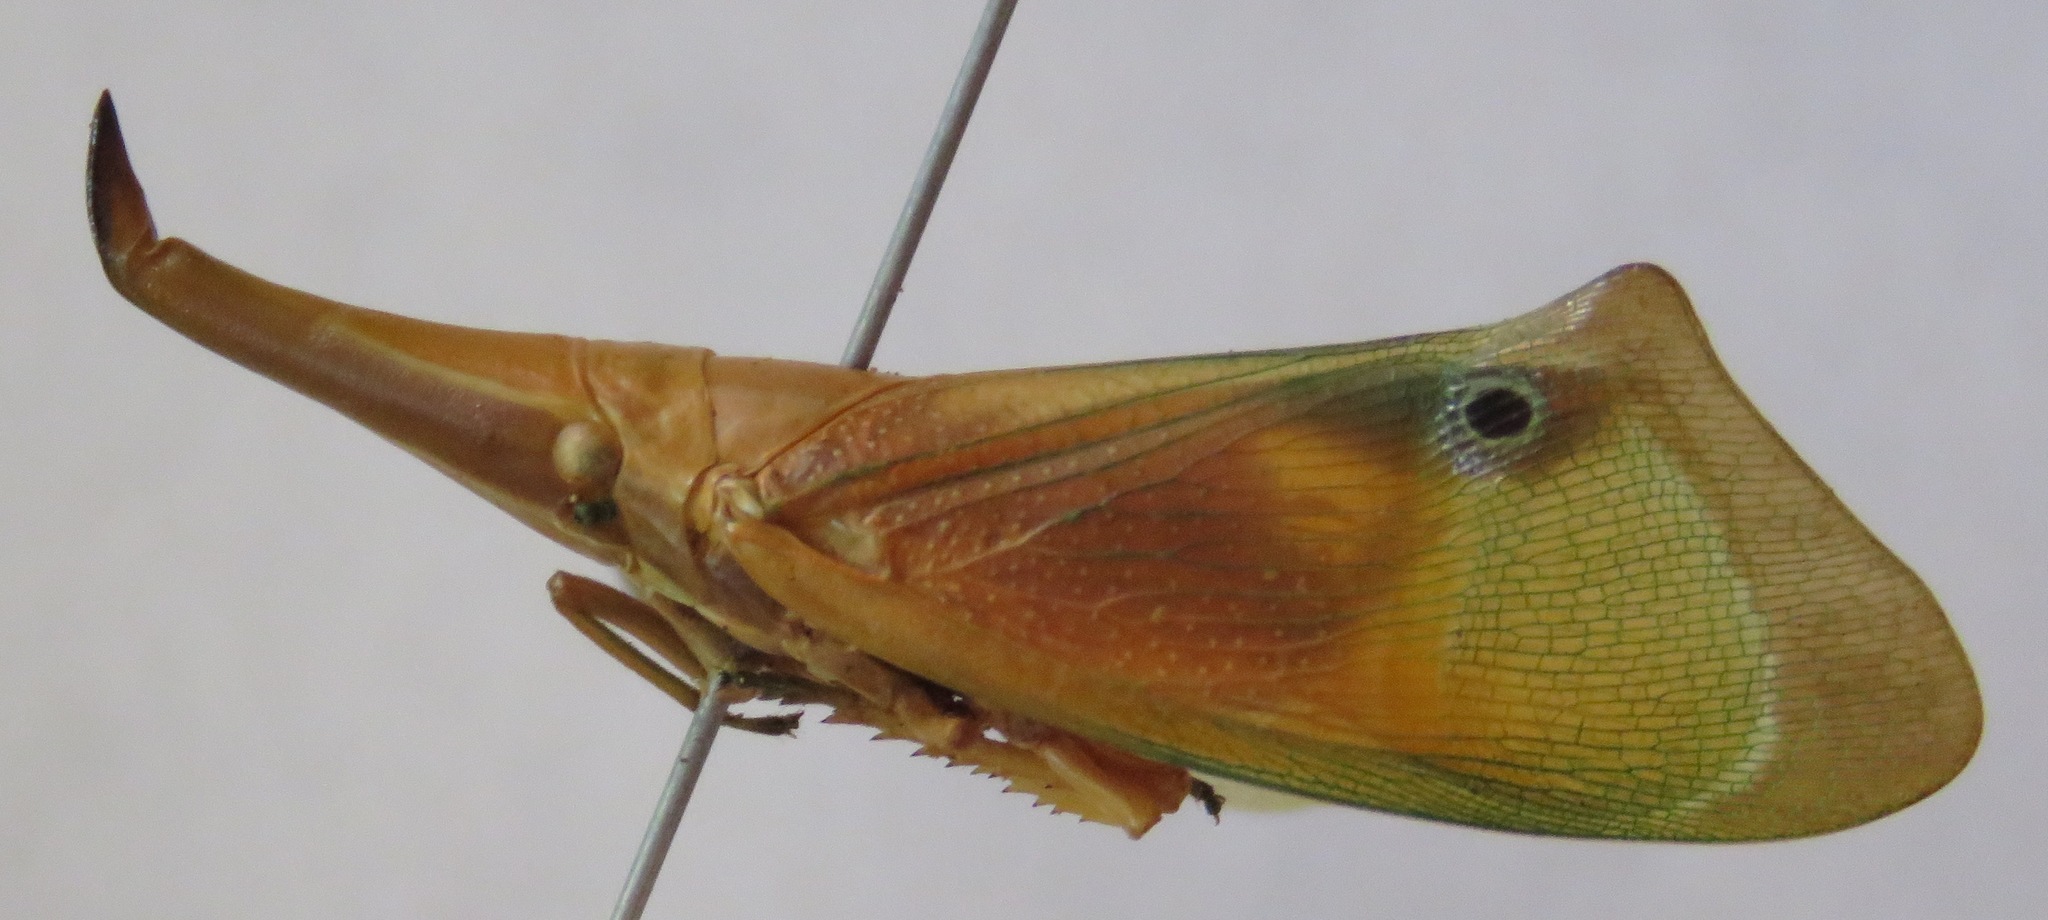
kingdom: Animalia
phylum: Arthropoda
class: Insecta
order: Hemiptera
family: Fulgoridae
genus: Odontoptera
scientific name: Odontoptera carrenoi
